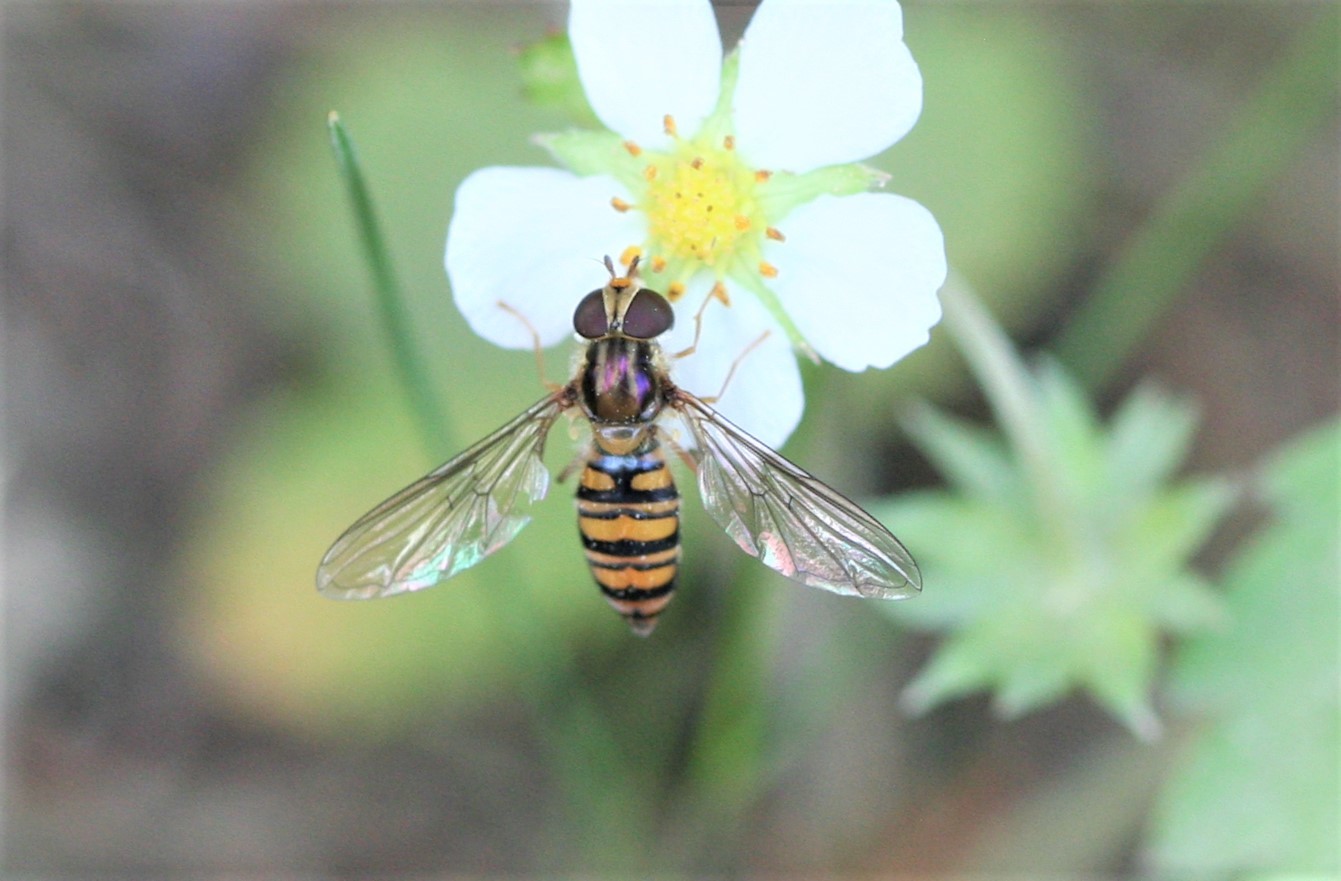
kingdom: Animalia
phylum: Arthropoda
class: Insecta
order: Diptera
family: Syrphidae
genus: Episyrphus
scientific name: Episyrphus balteatus
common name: Marmalade hoverfly
